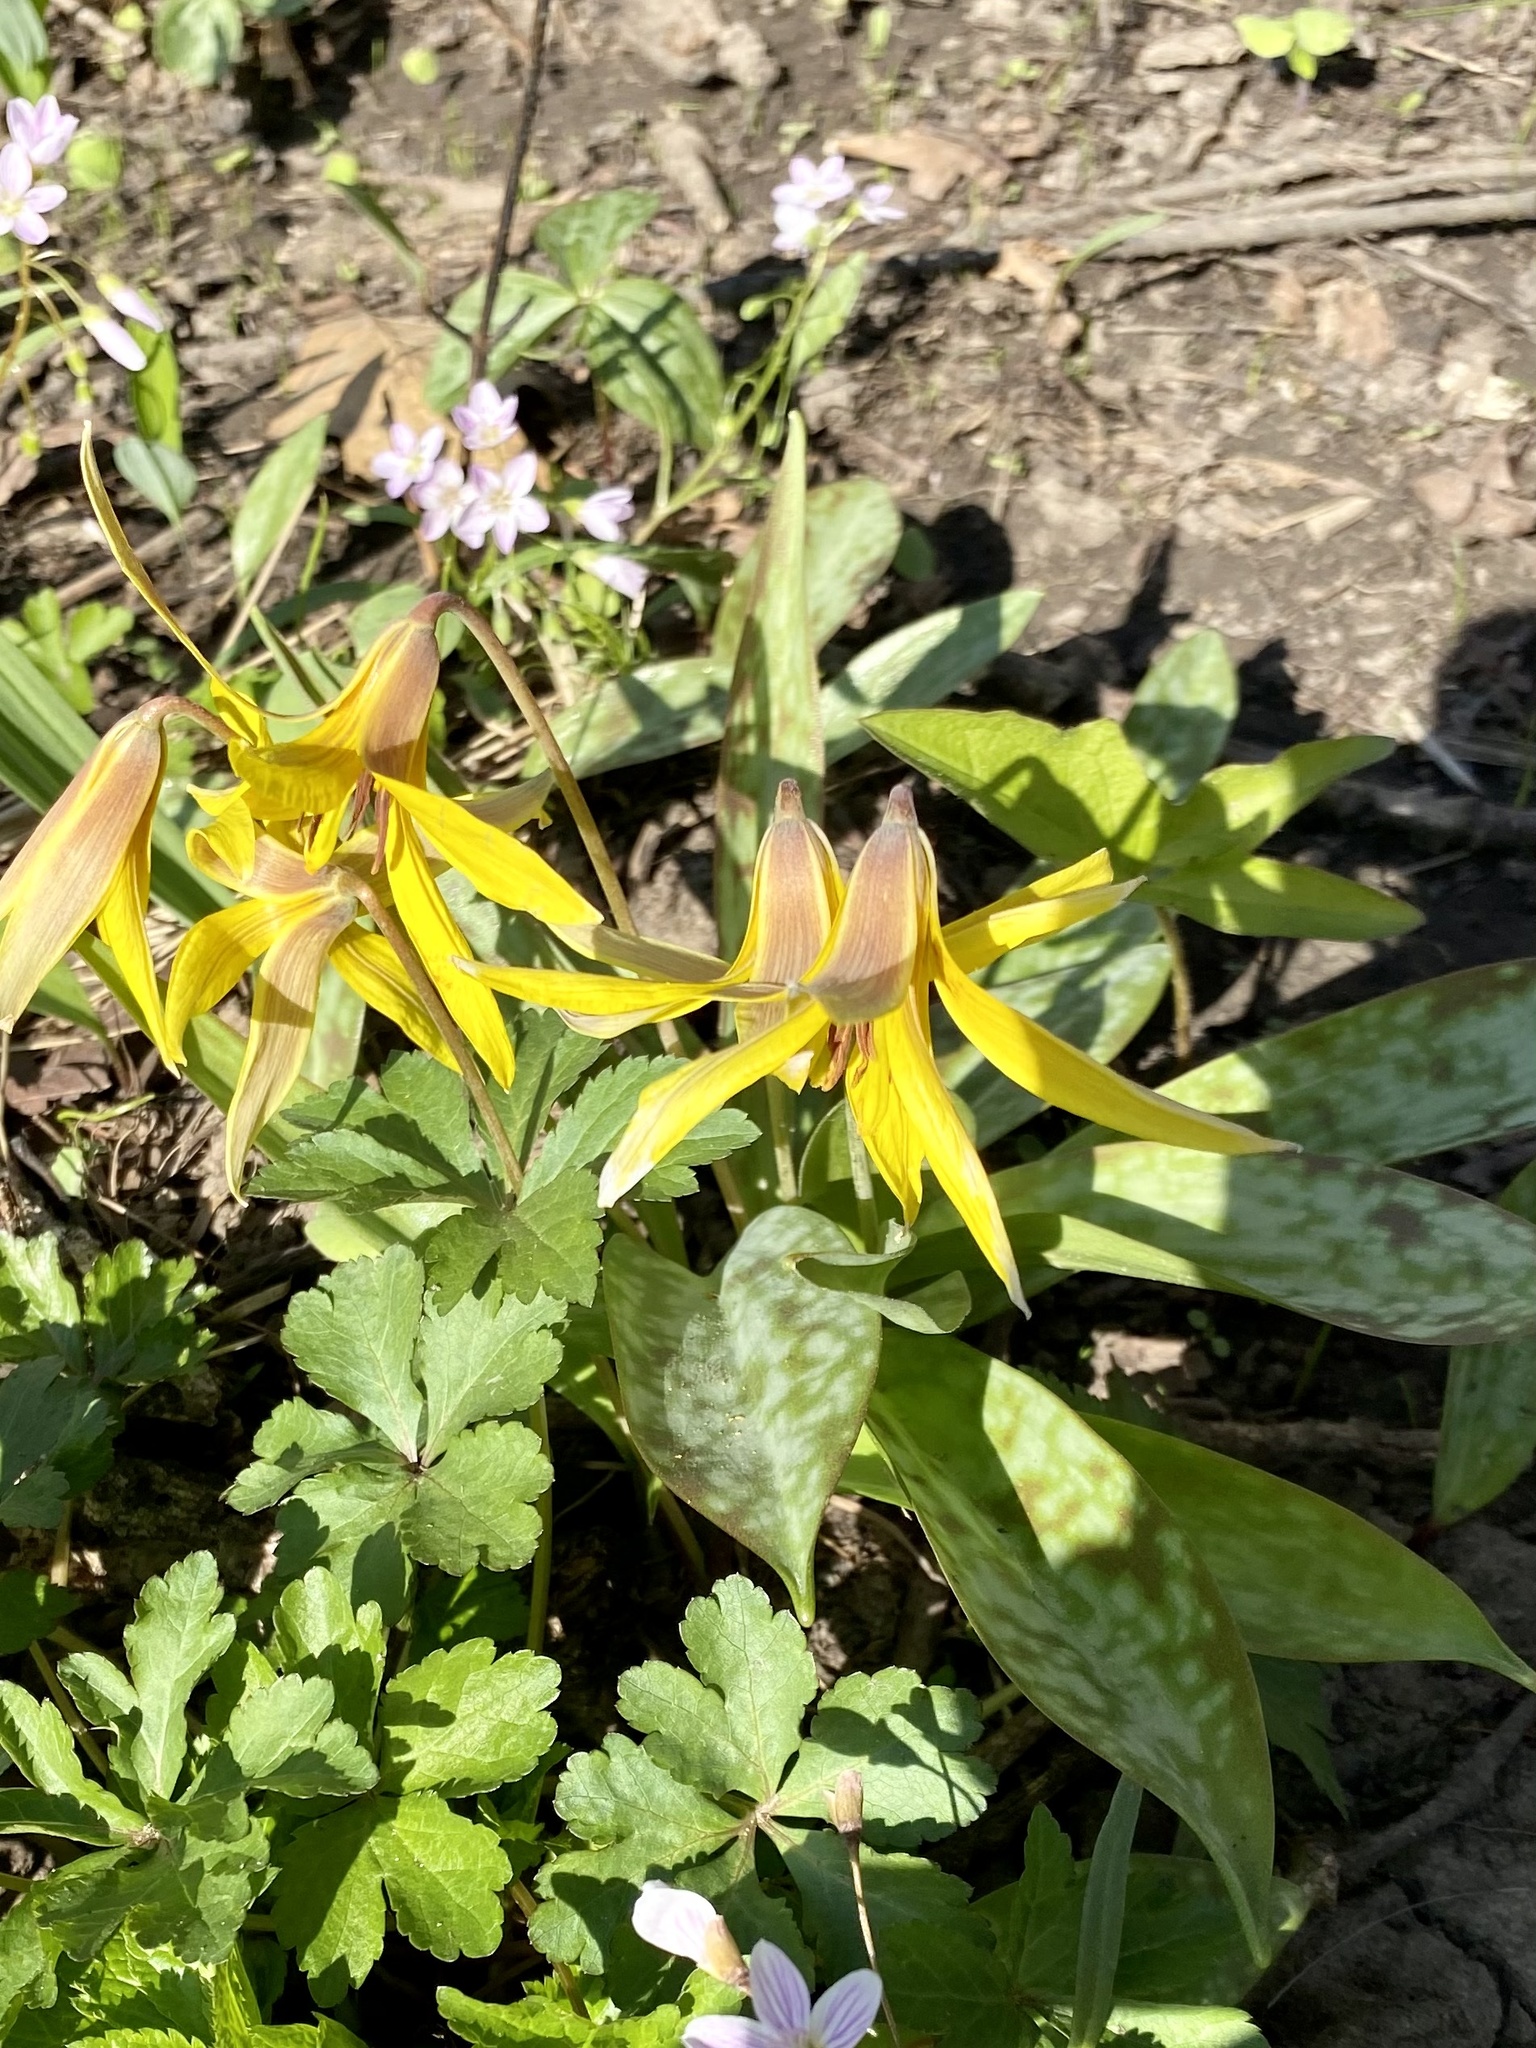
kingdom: Plantae
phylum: Tracheophyta
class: Liliopsida
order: Liliales
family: Liliaceae
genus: Erythronium
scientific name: Erythronium americanum
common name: Yellow adder's-tongue
